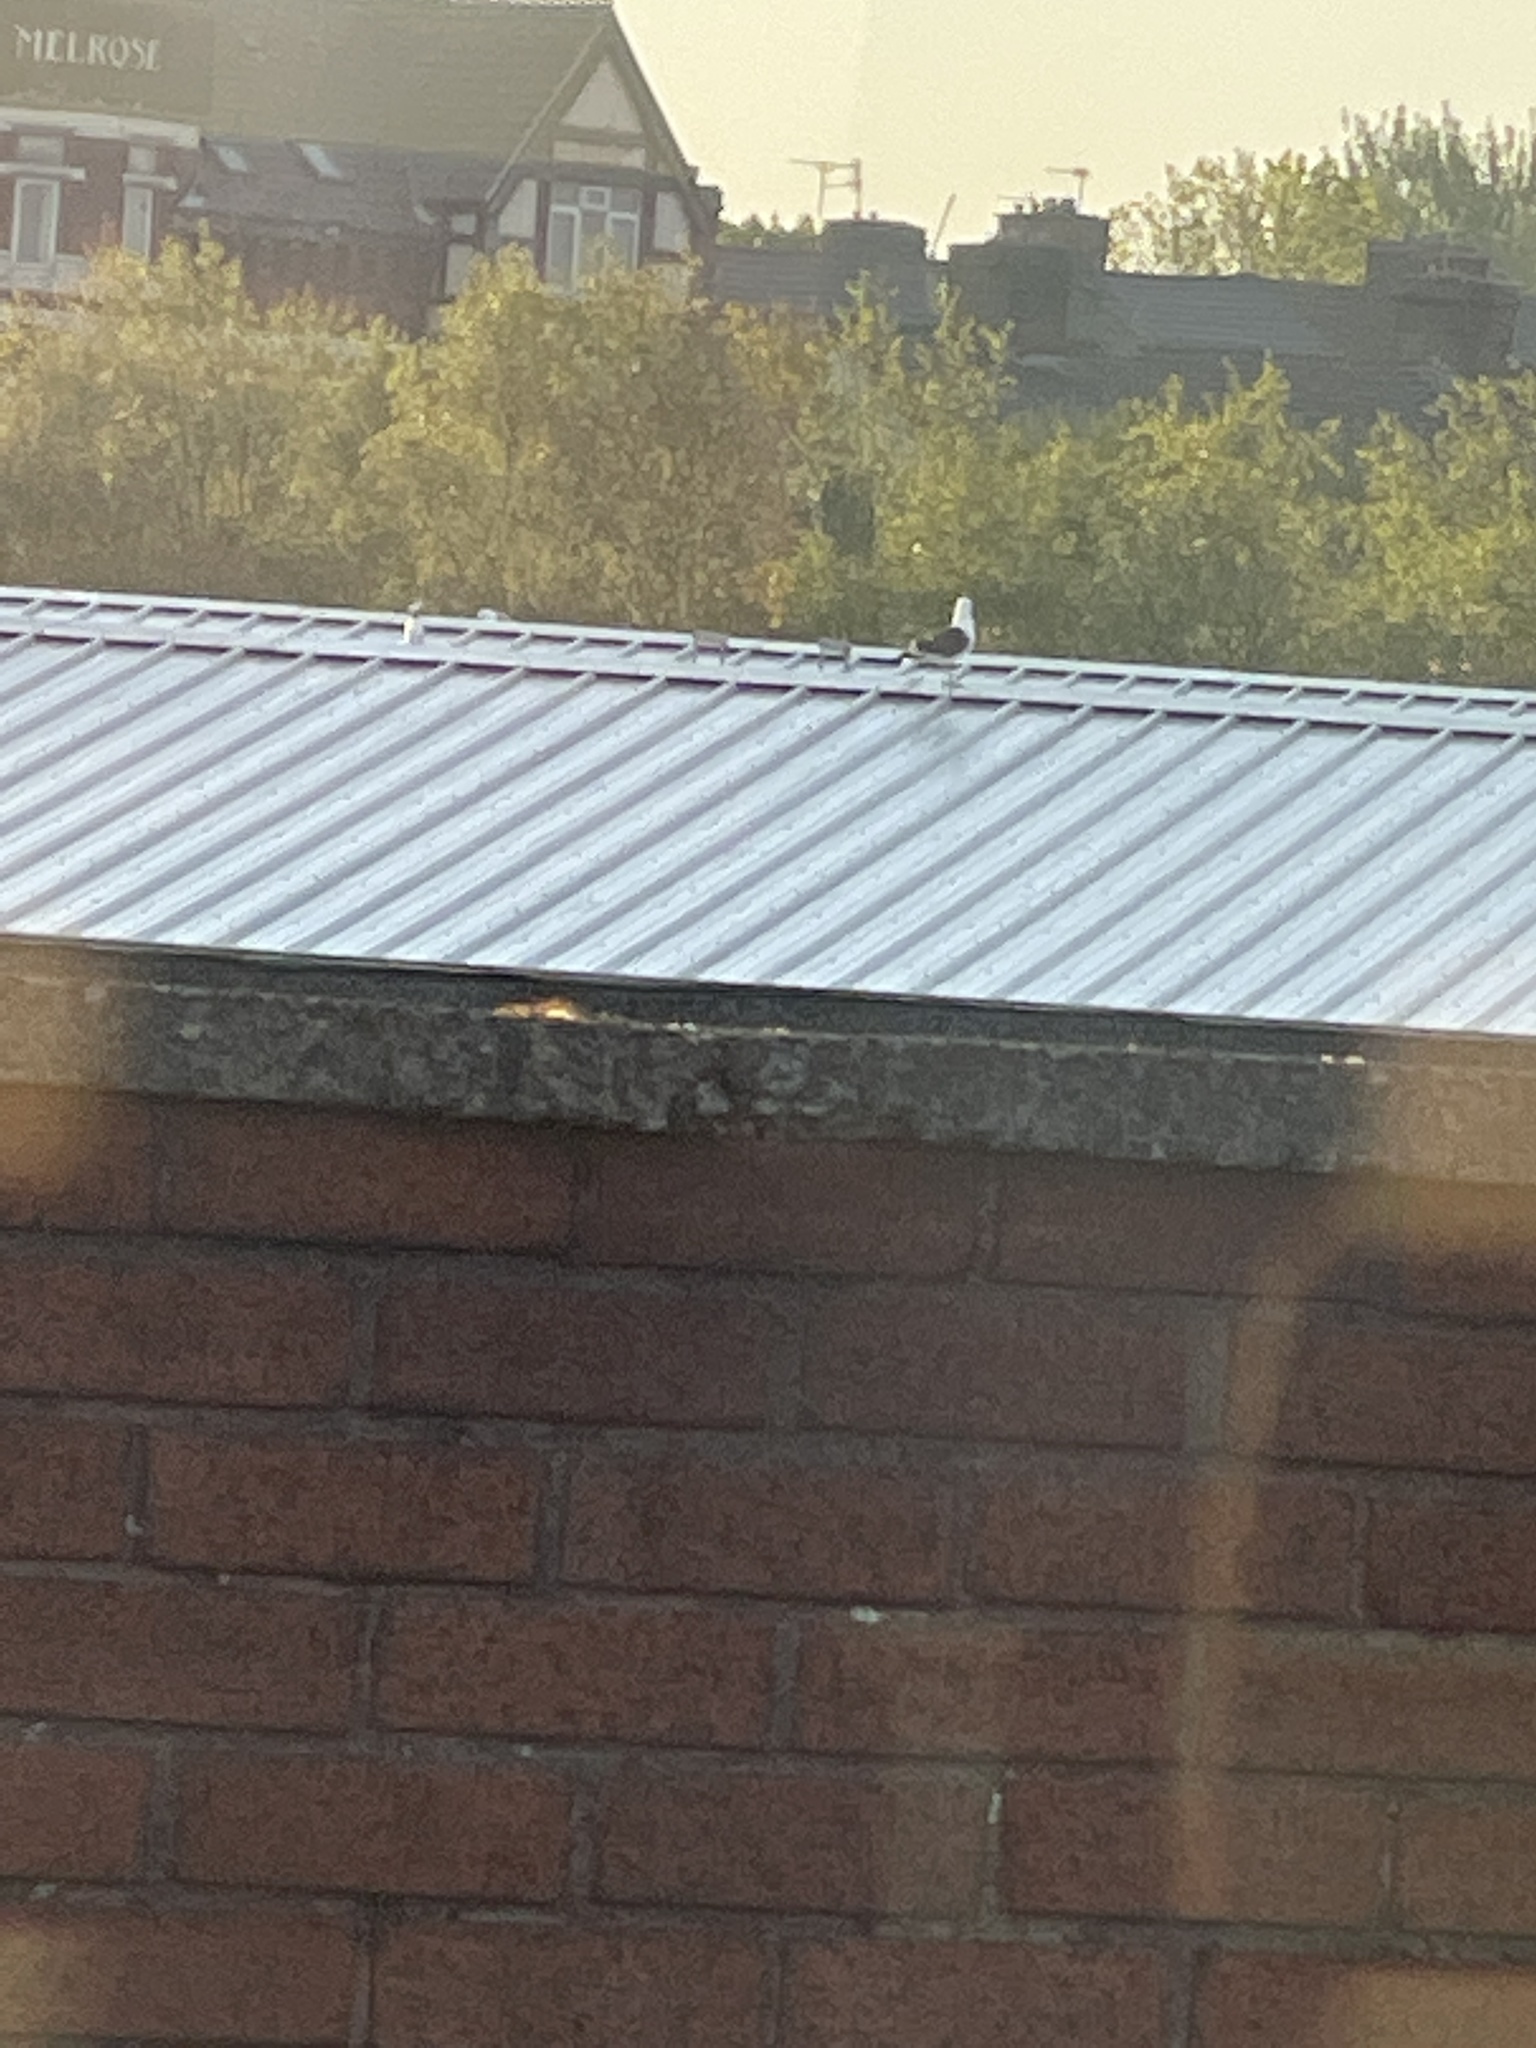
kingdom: Animalia
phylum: Chordata
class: Aves
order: Charadriiformes
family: Laridae
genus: Larus
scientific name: Larus fuscus
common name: Lesser black-backed gull
